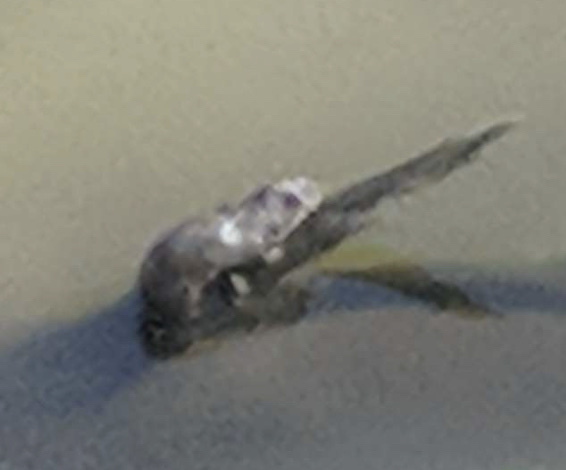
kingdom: Animalia
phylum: Chordata
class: Mammalia
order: Carnivora
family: Mustelidae
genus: Lontra
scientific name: Lontra canadensis
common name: North american river otter
